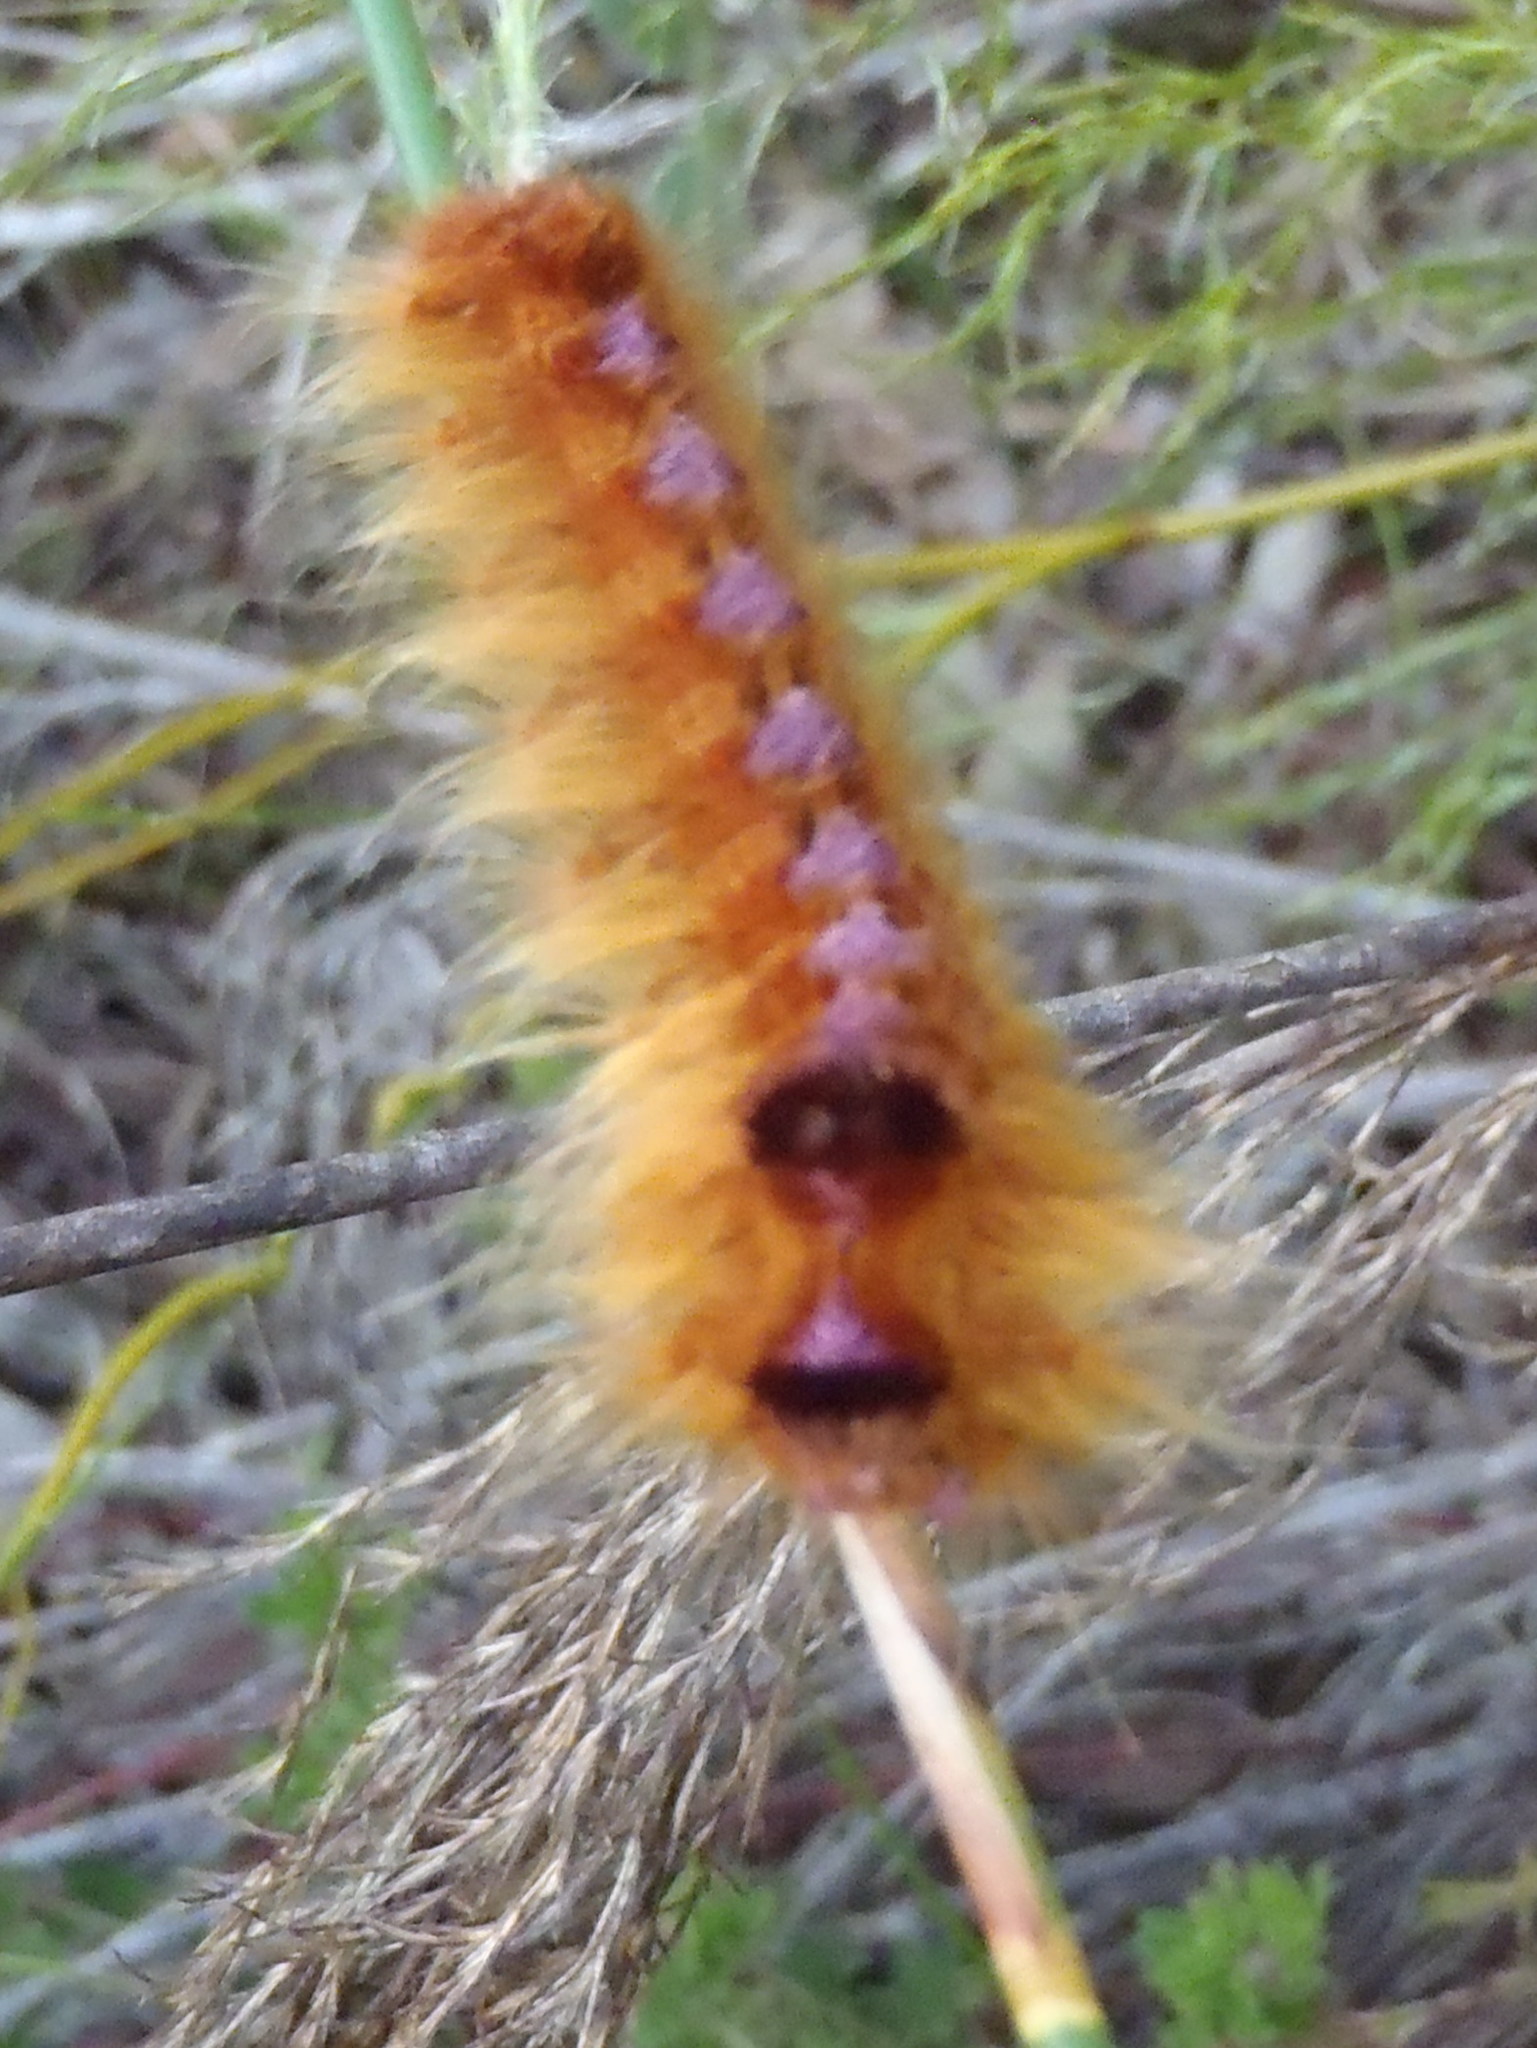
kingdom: Animalia
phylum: Arthropoda
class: Insecta
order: Lepidoptera
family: Lasiocampidae
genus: Eutricha
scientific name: Eutricha bifascia
